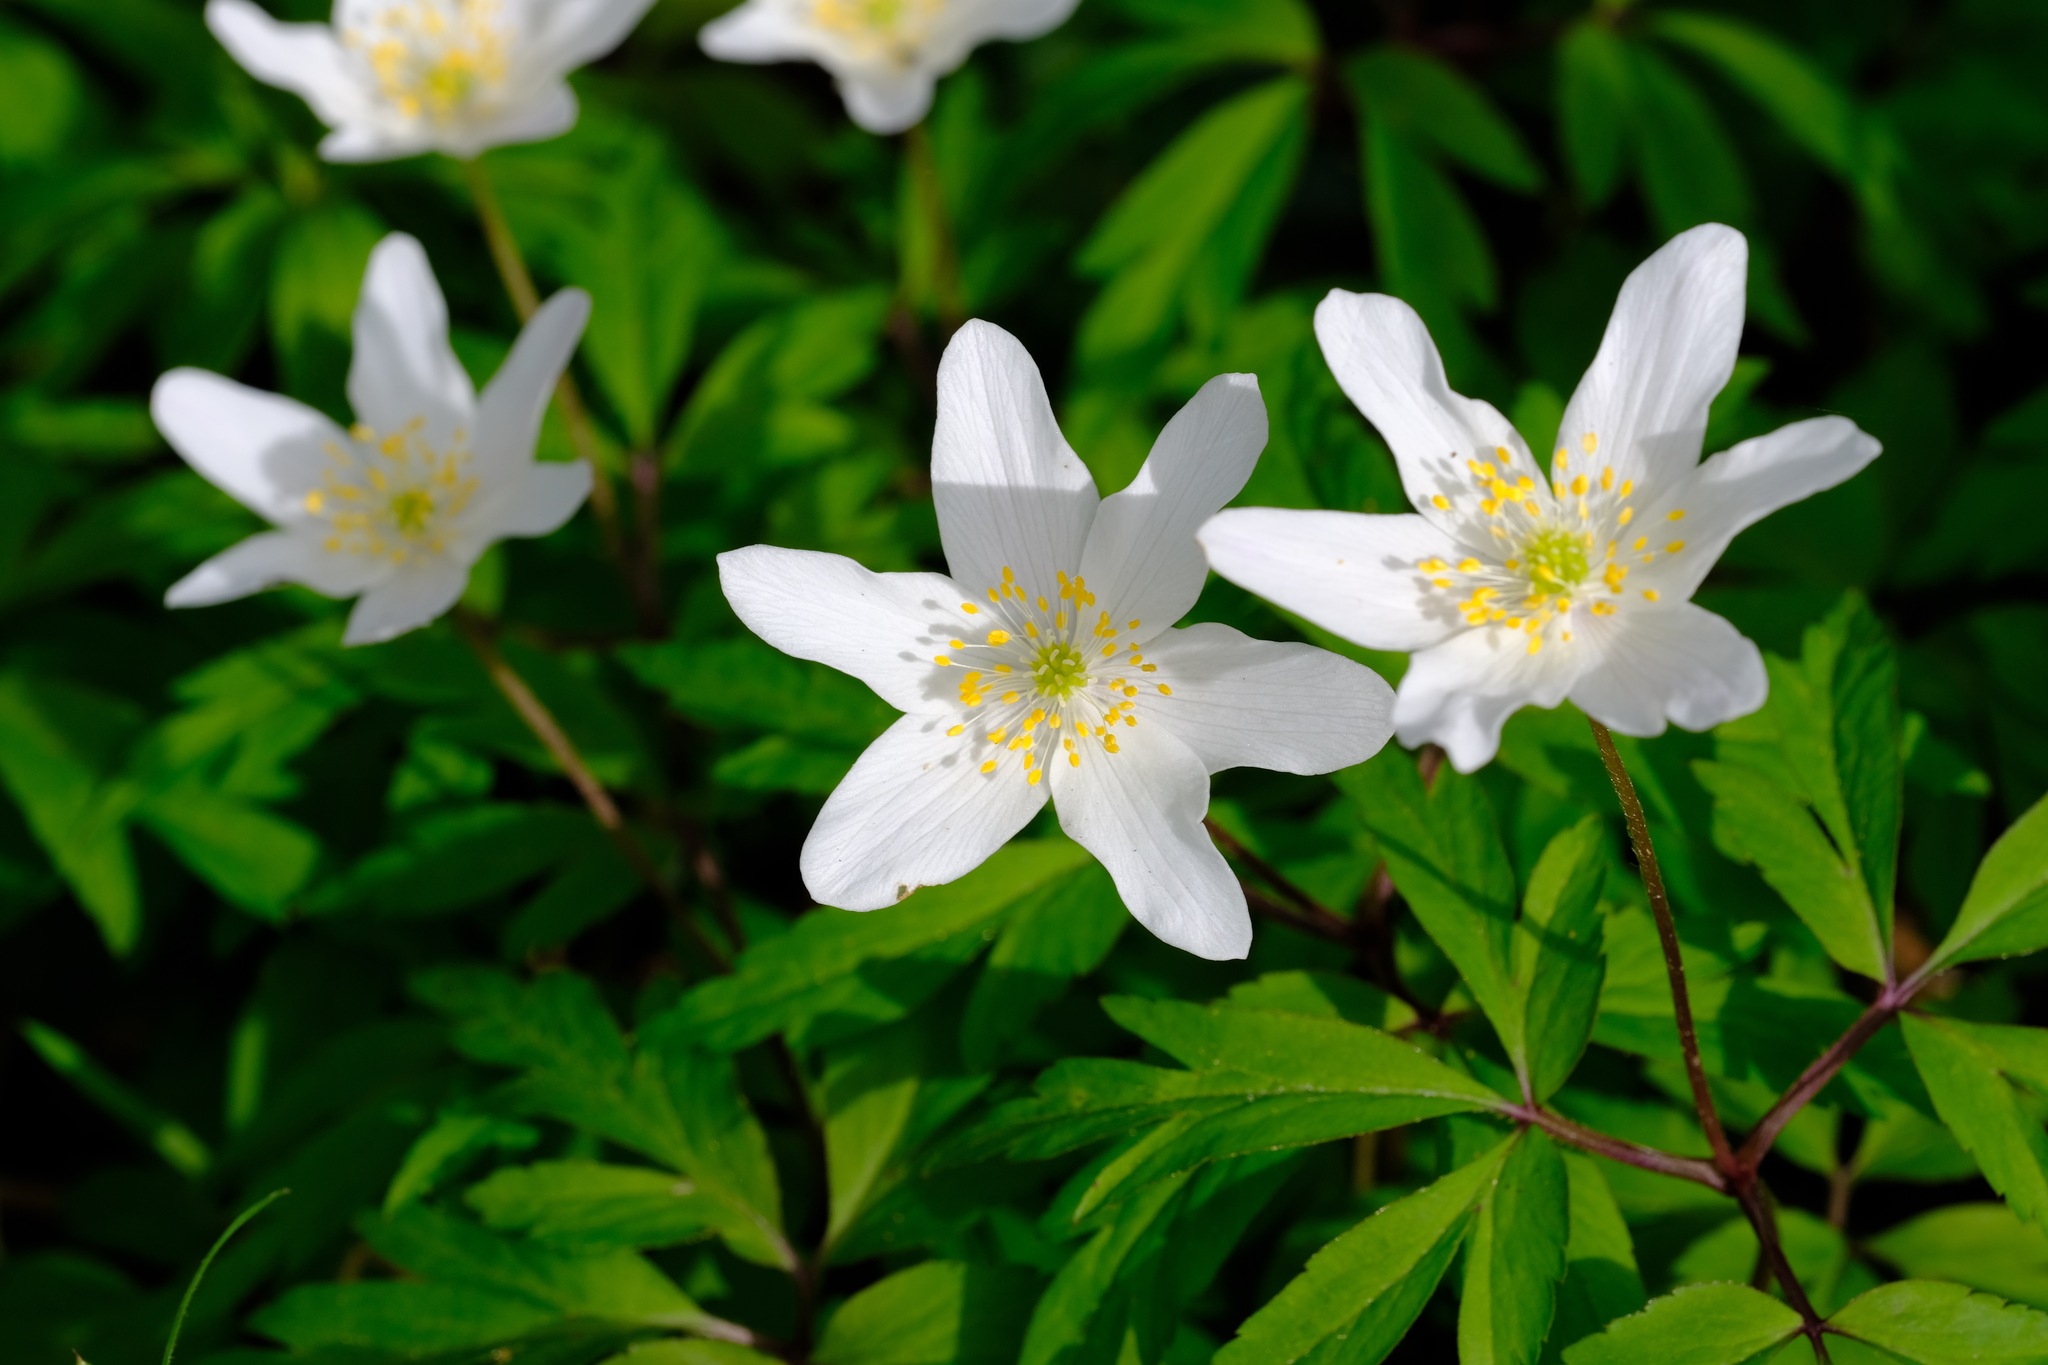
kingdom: Plantae
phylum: Tracheophyta
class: Magnoliopsida
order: Ranunculales
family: Ranunculaceae
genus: Anemone
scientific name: Anemone nemorosa
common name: Wood anemone
